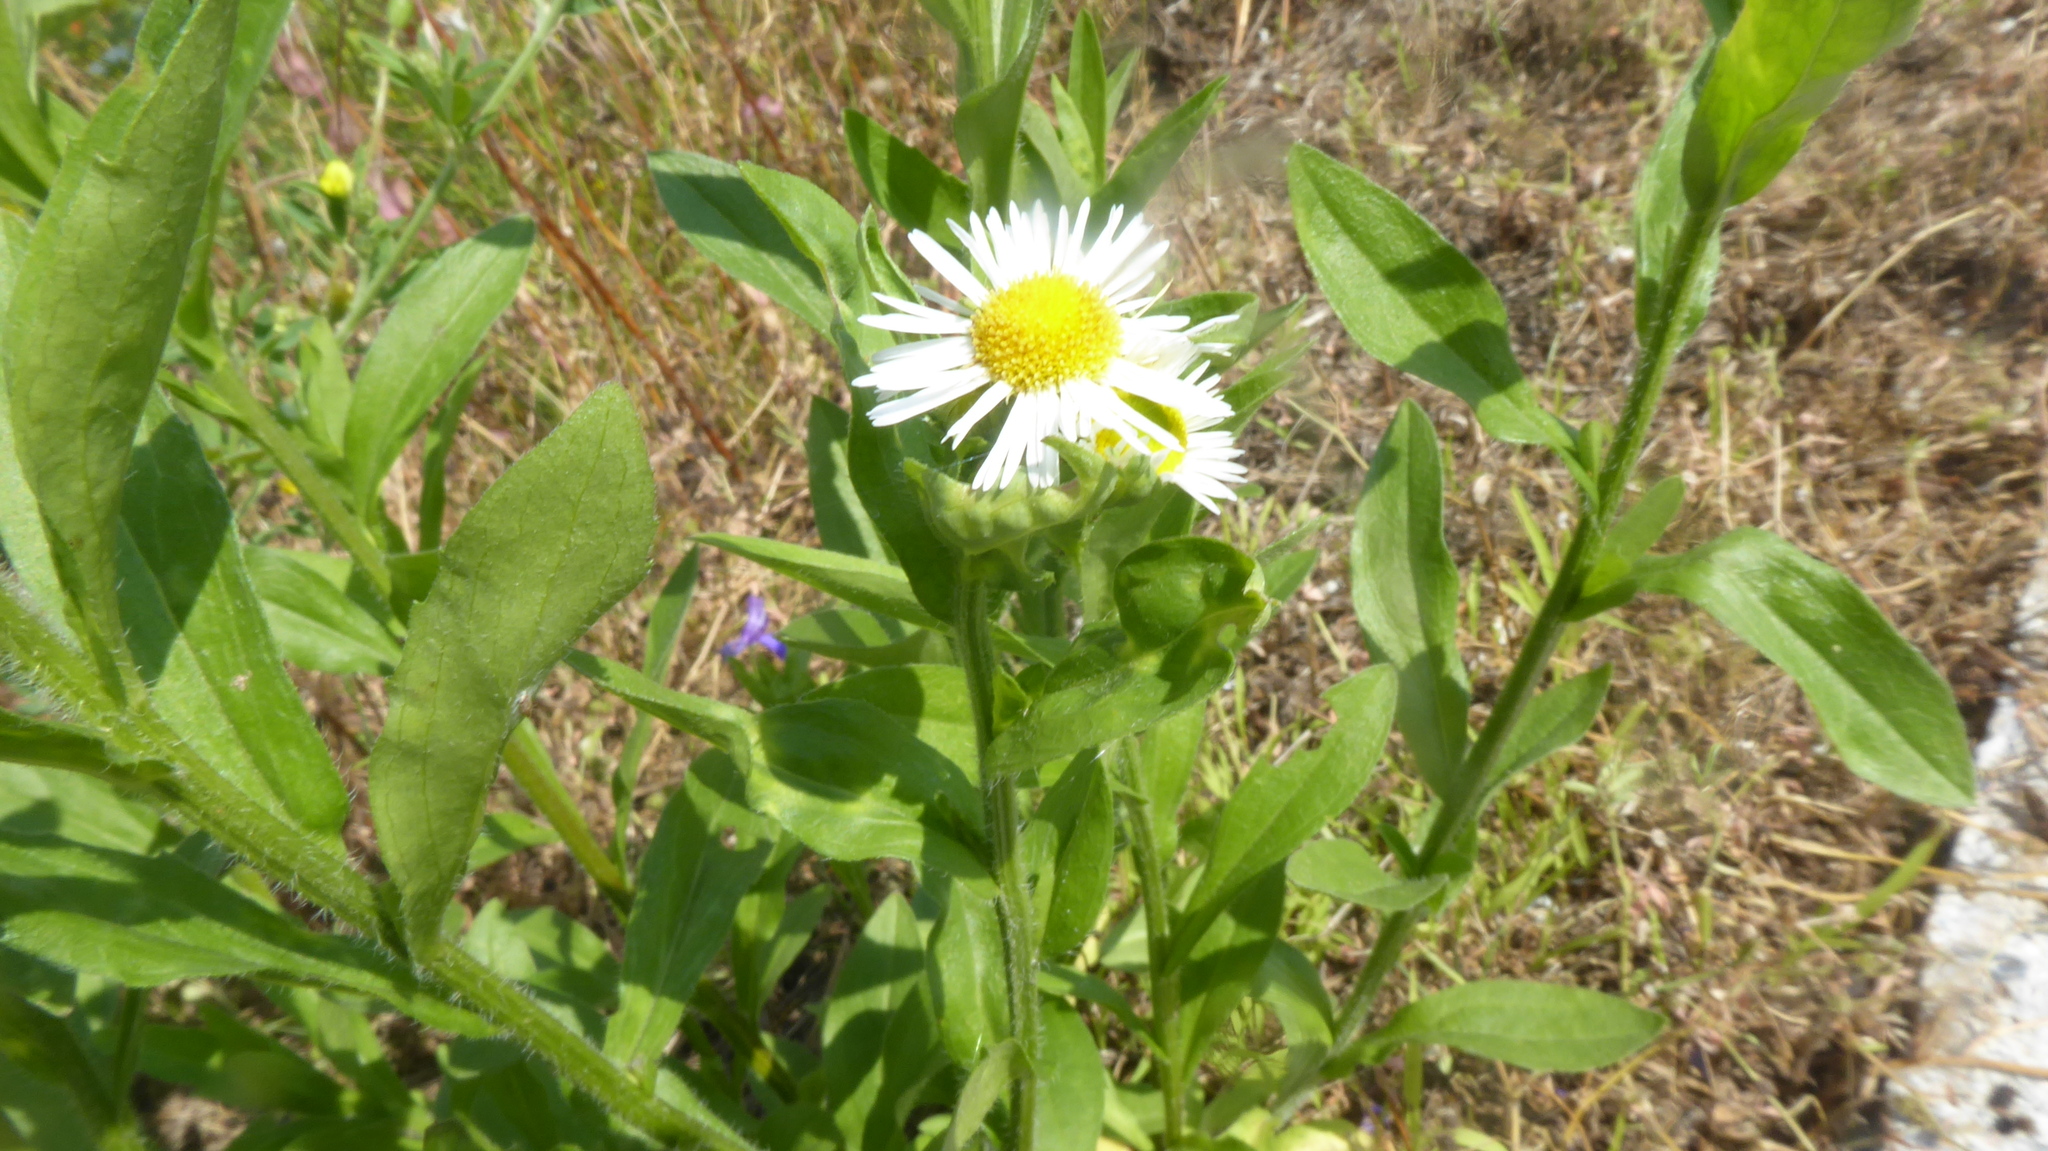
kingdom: Plantae
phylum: Tracheophyta
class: Magnoliopsida
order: Asterales
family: Asteraceae
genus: Erigeron
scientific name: Erigeron annuus
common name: Tall fleabane
